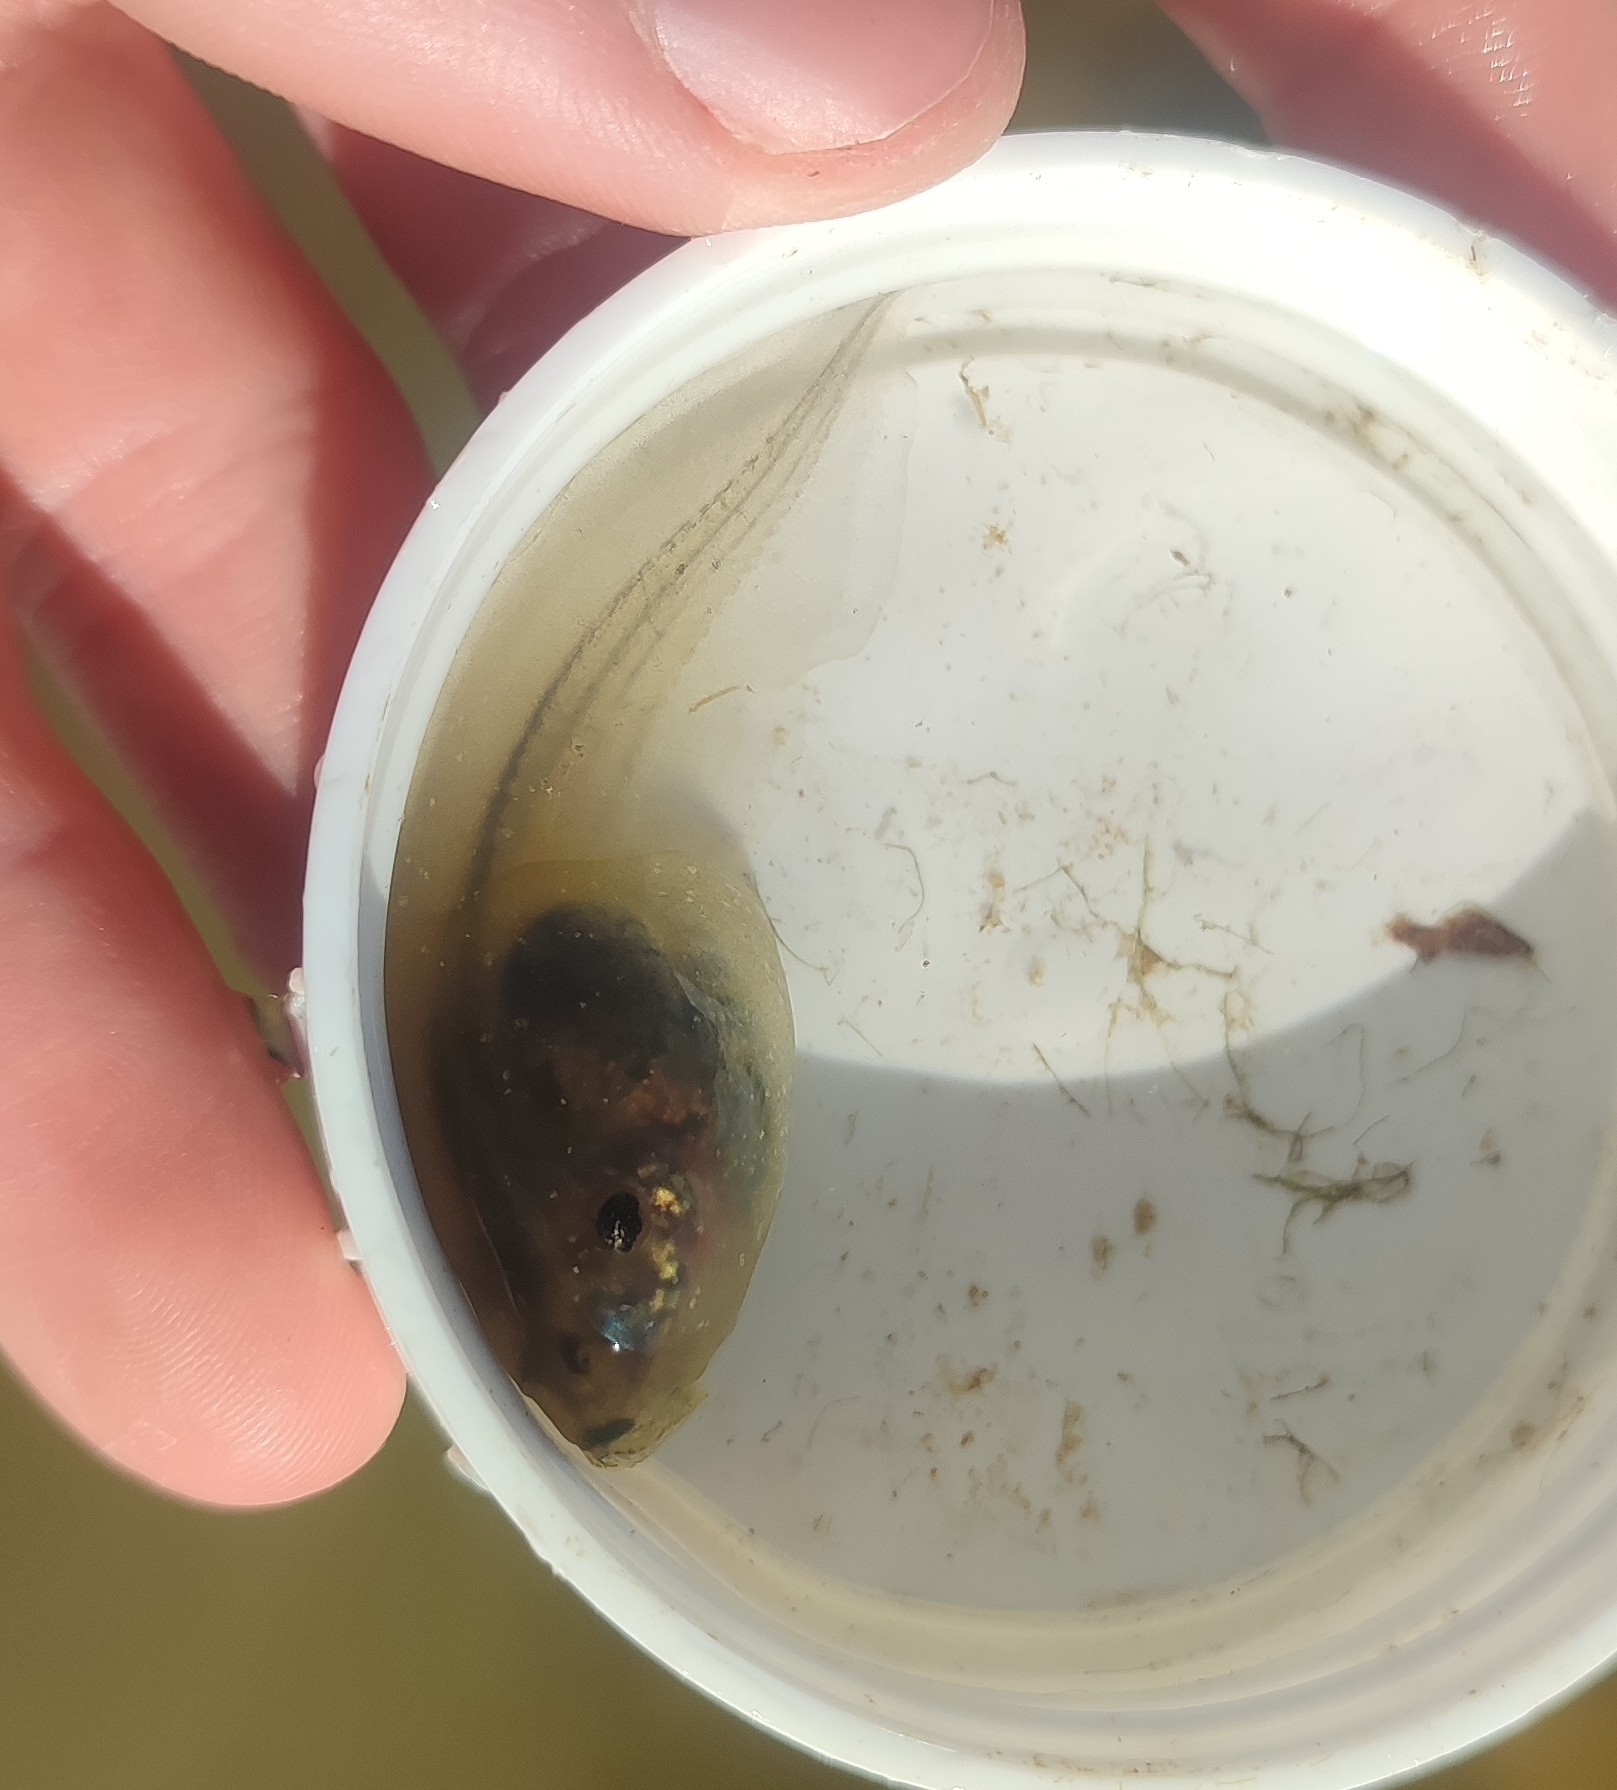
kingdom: Animalia
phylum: Chordata
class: Amphibia
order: Anura
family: Pelobatidae
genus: Pelobates
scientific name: Pelobates cultripes
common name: Western spadefoot
